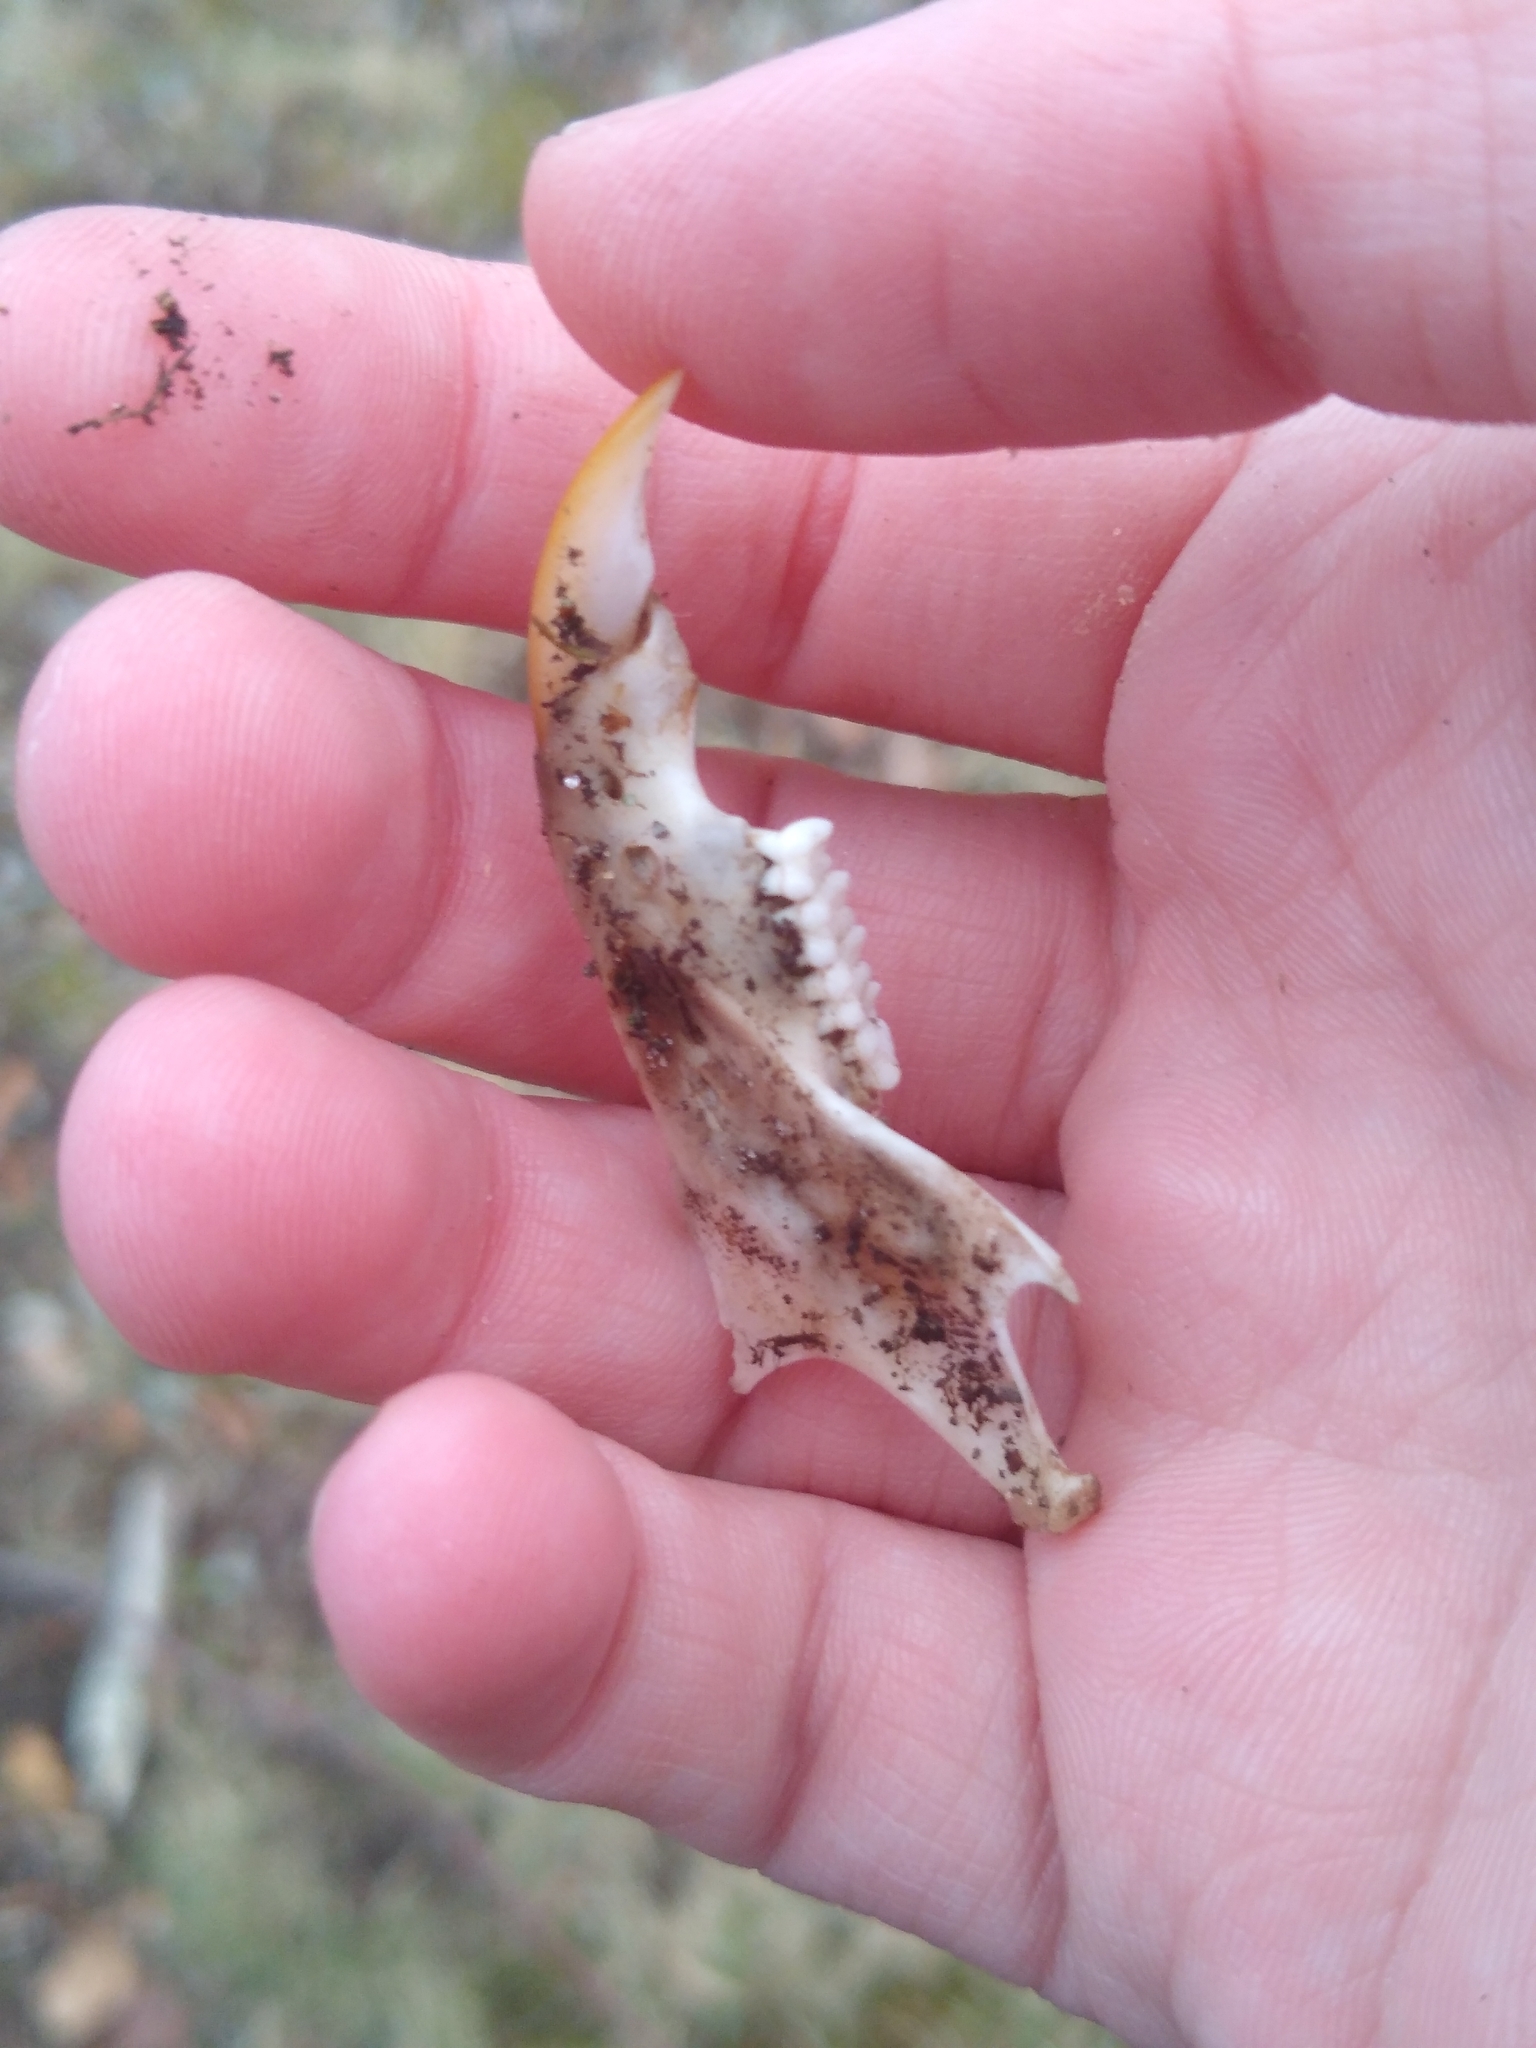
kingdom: Animalia
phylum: Chordata
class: Mammalia
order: Rodentia
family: Sciuridae
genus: Sciurus
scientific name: Sciurus carolinensis
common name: Eastern gray squirrel
